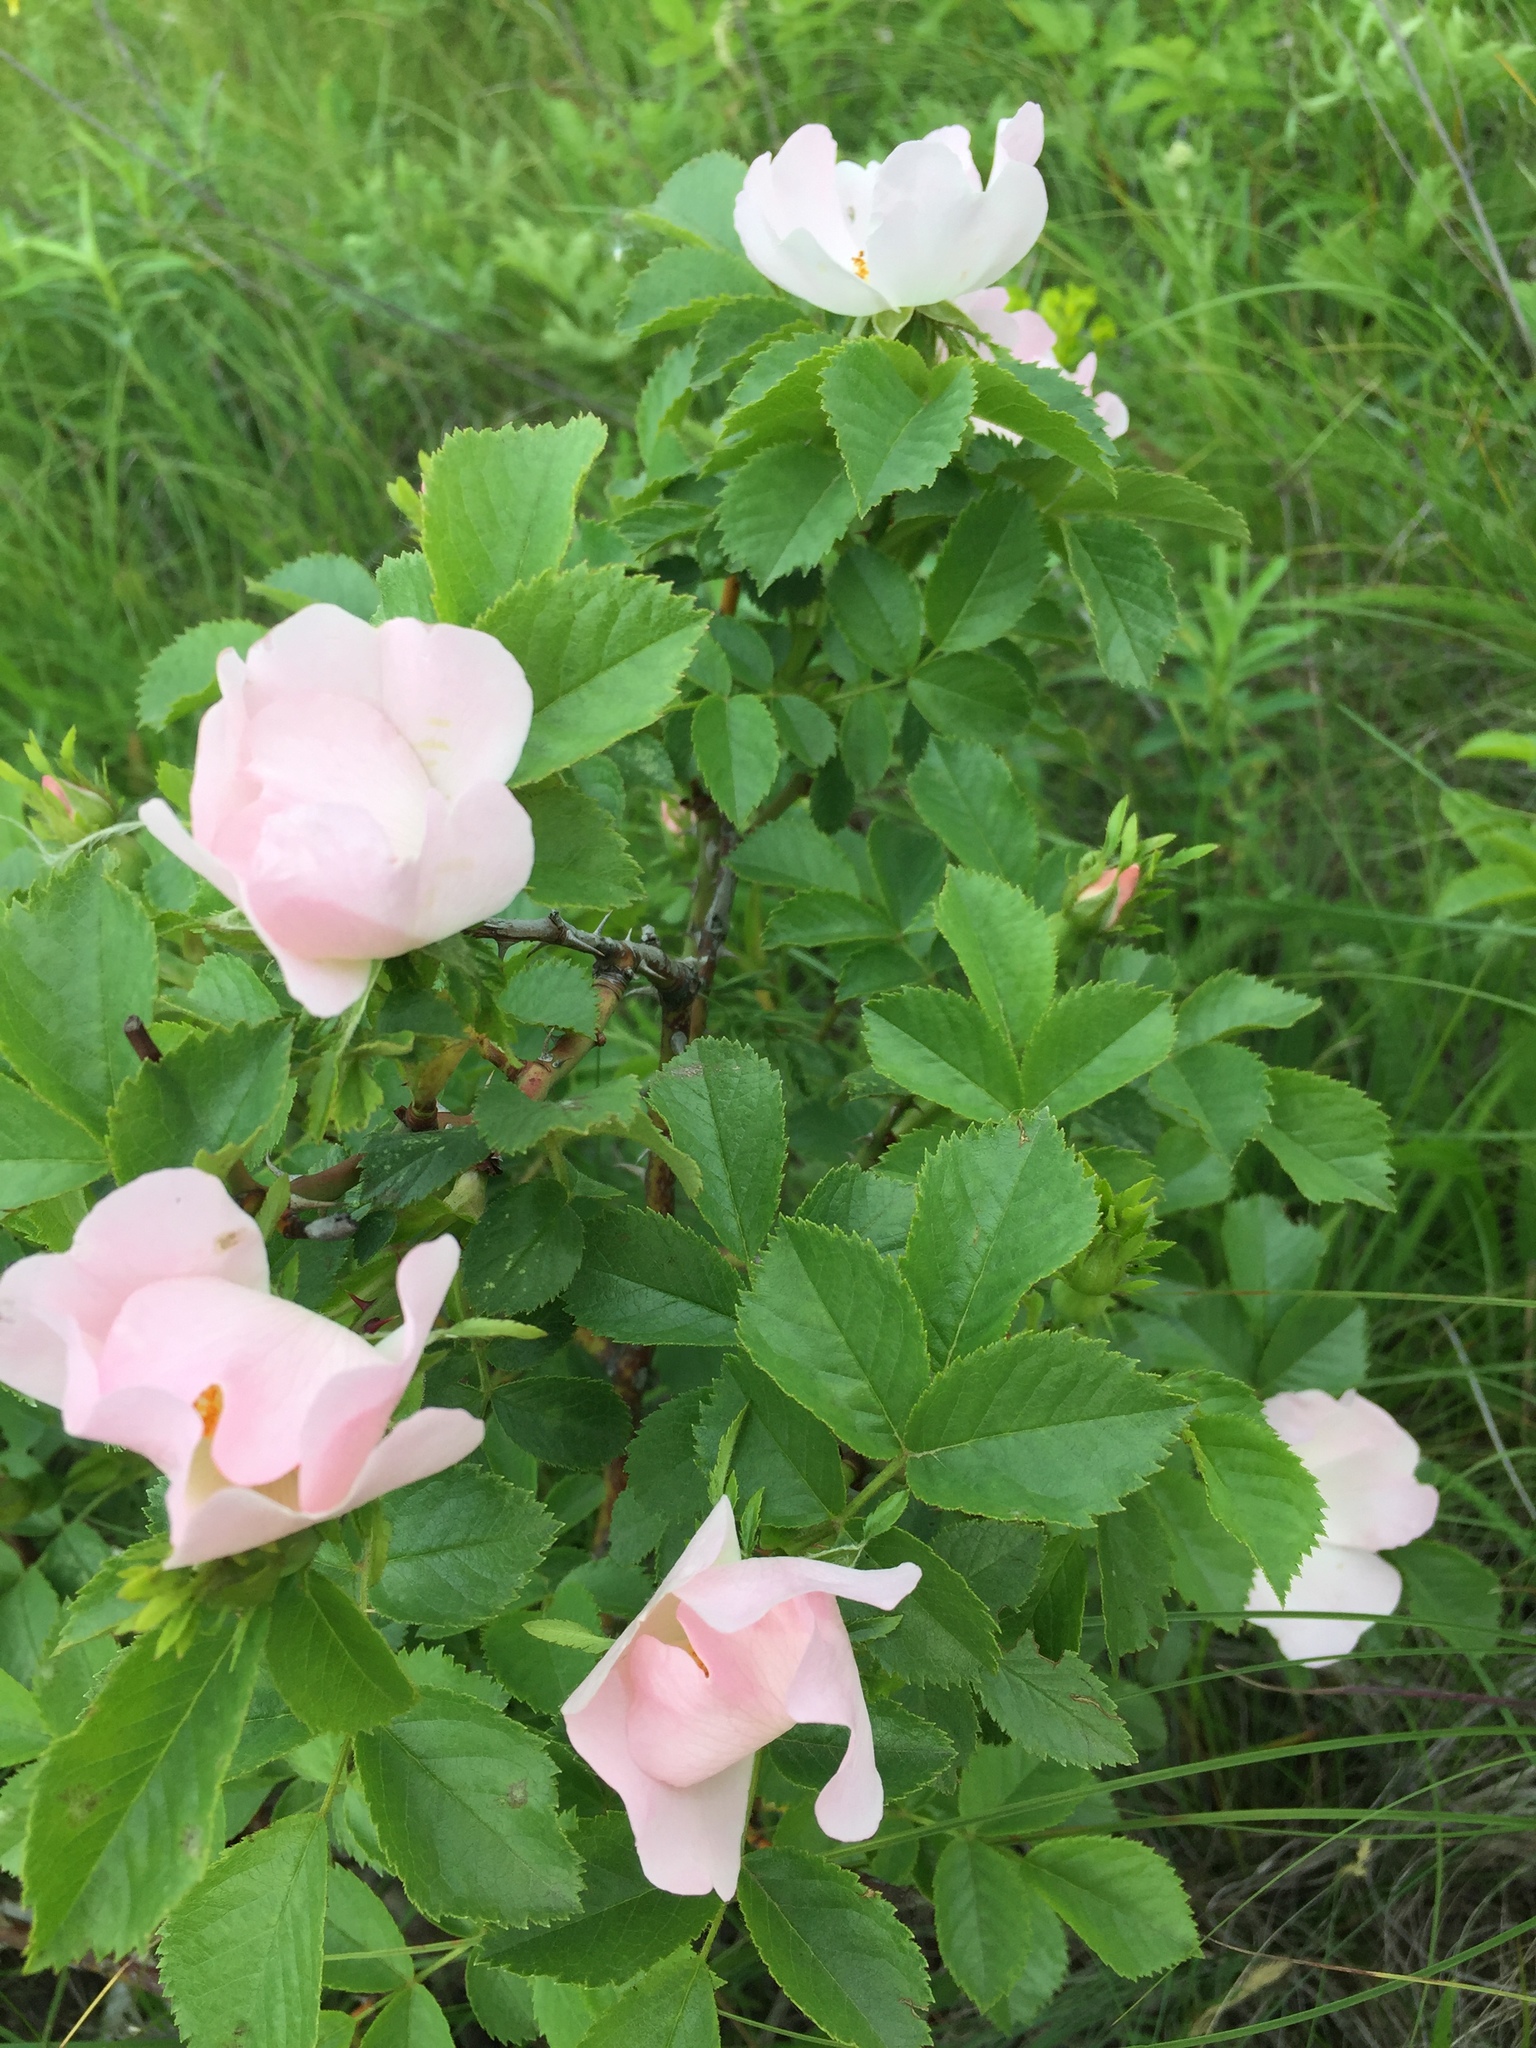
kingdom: Plantae
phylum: Tracheophyta
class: Magnoliopsida
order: Rosales
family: Rosaceae
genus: Rosa
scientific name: Rosa canina
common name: Dog rose
